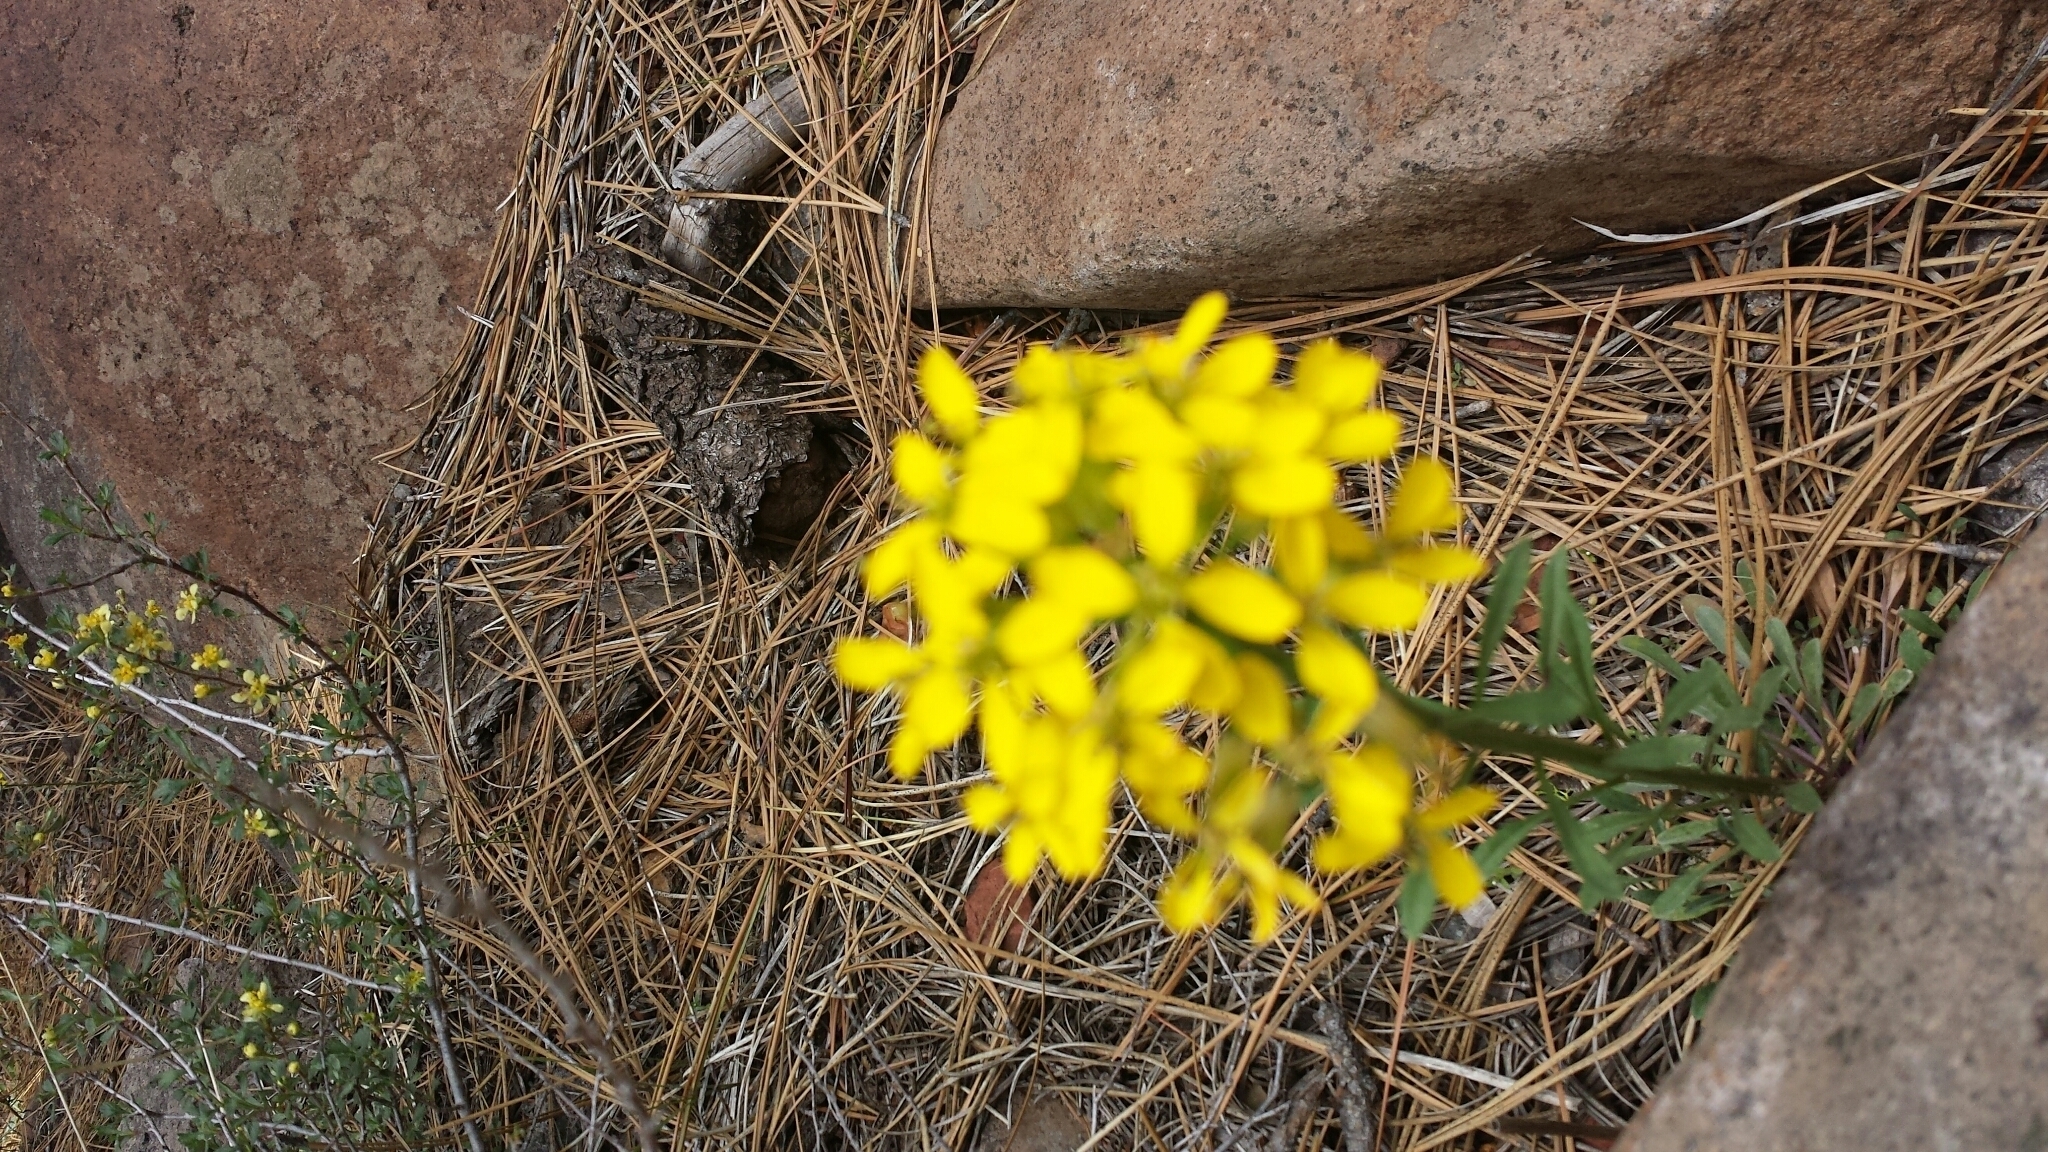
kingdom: Plantae
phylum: Tracheophyta
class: Magnoliopsida
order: Brassicales
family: Brassicaceae
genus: Erysimum
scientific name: Erysimum capitatum
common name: Western wallflower
